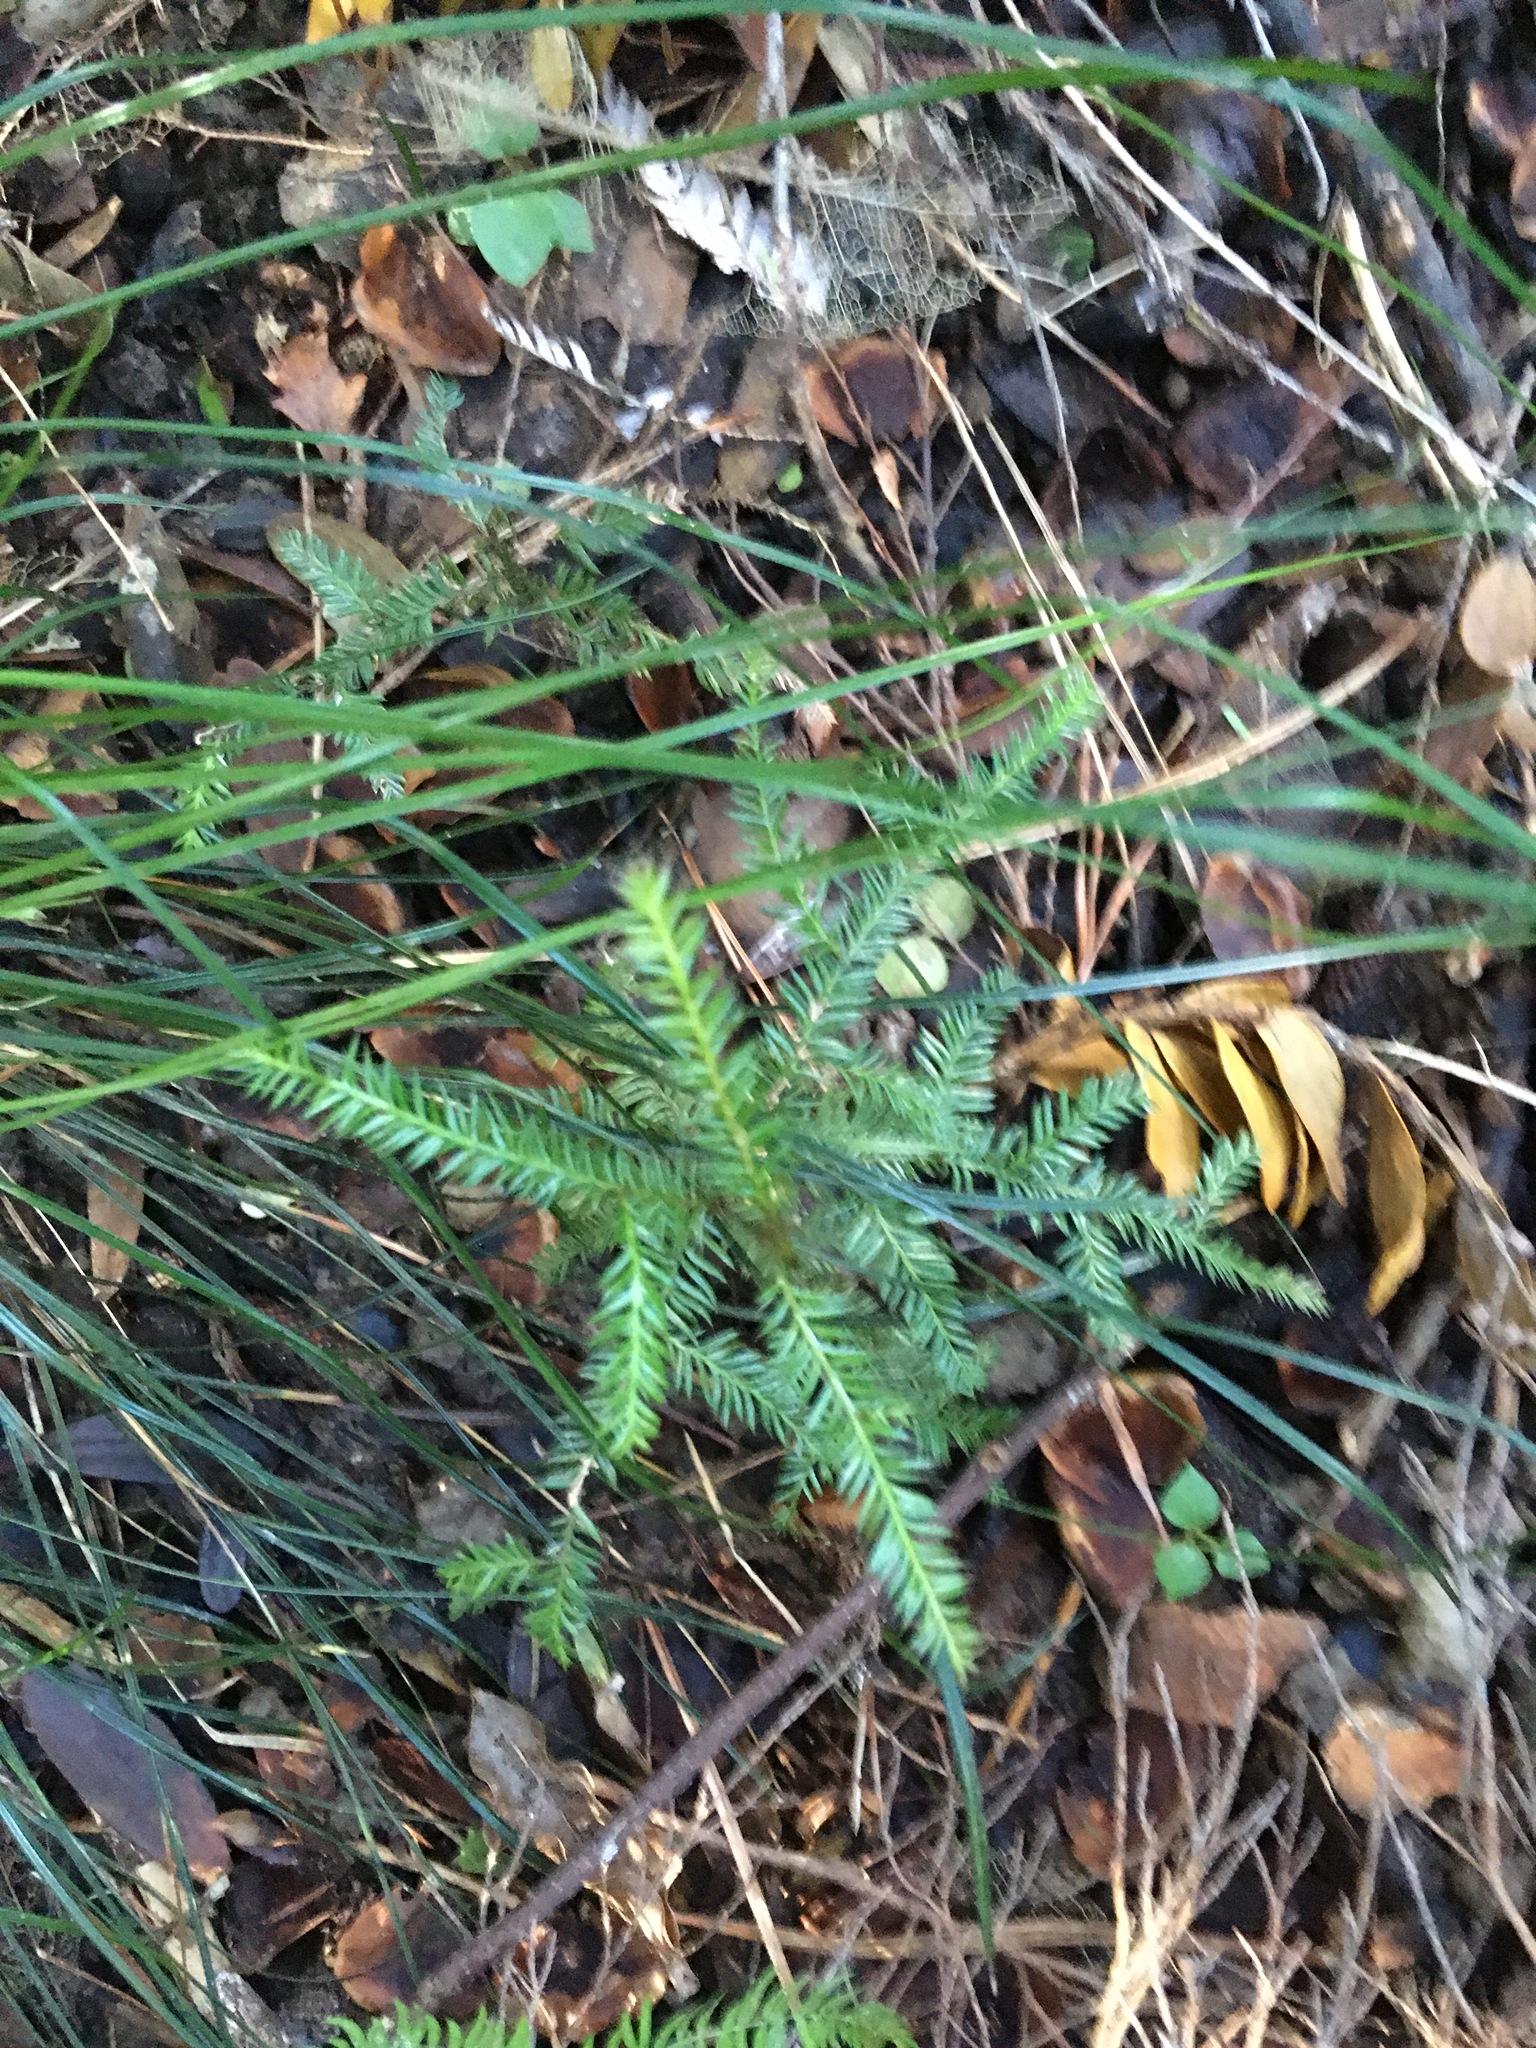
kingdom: Plantae
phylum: Tracheophyta
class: Pinopsida
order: Pinales
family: Podocarpaceae
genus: Dacrycarpus
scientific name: Dacrycarpus dacrydioides
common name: White pine
